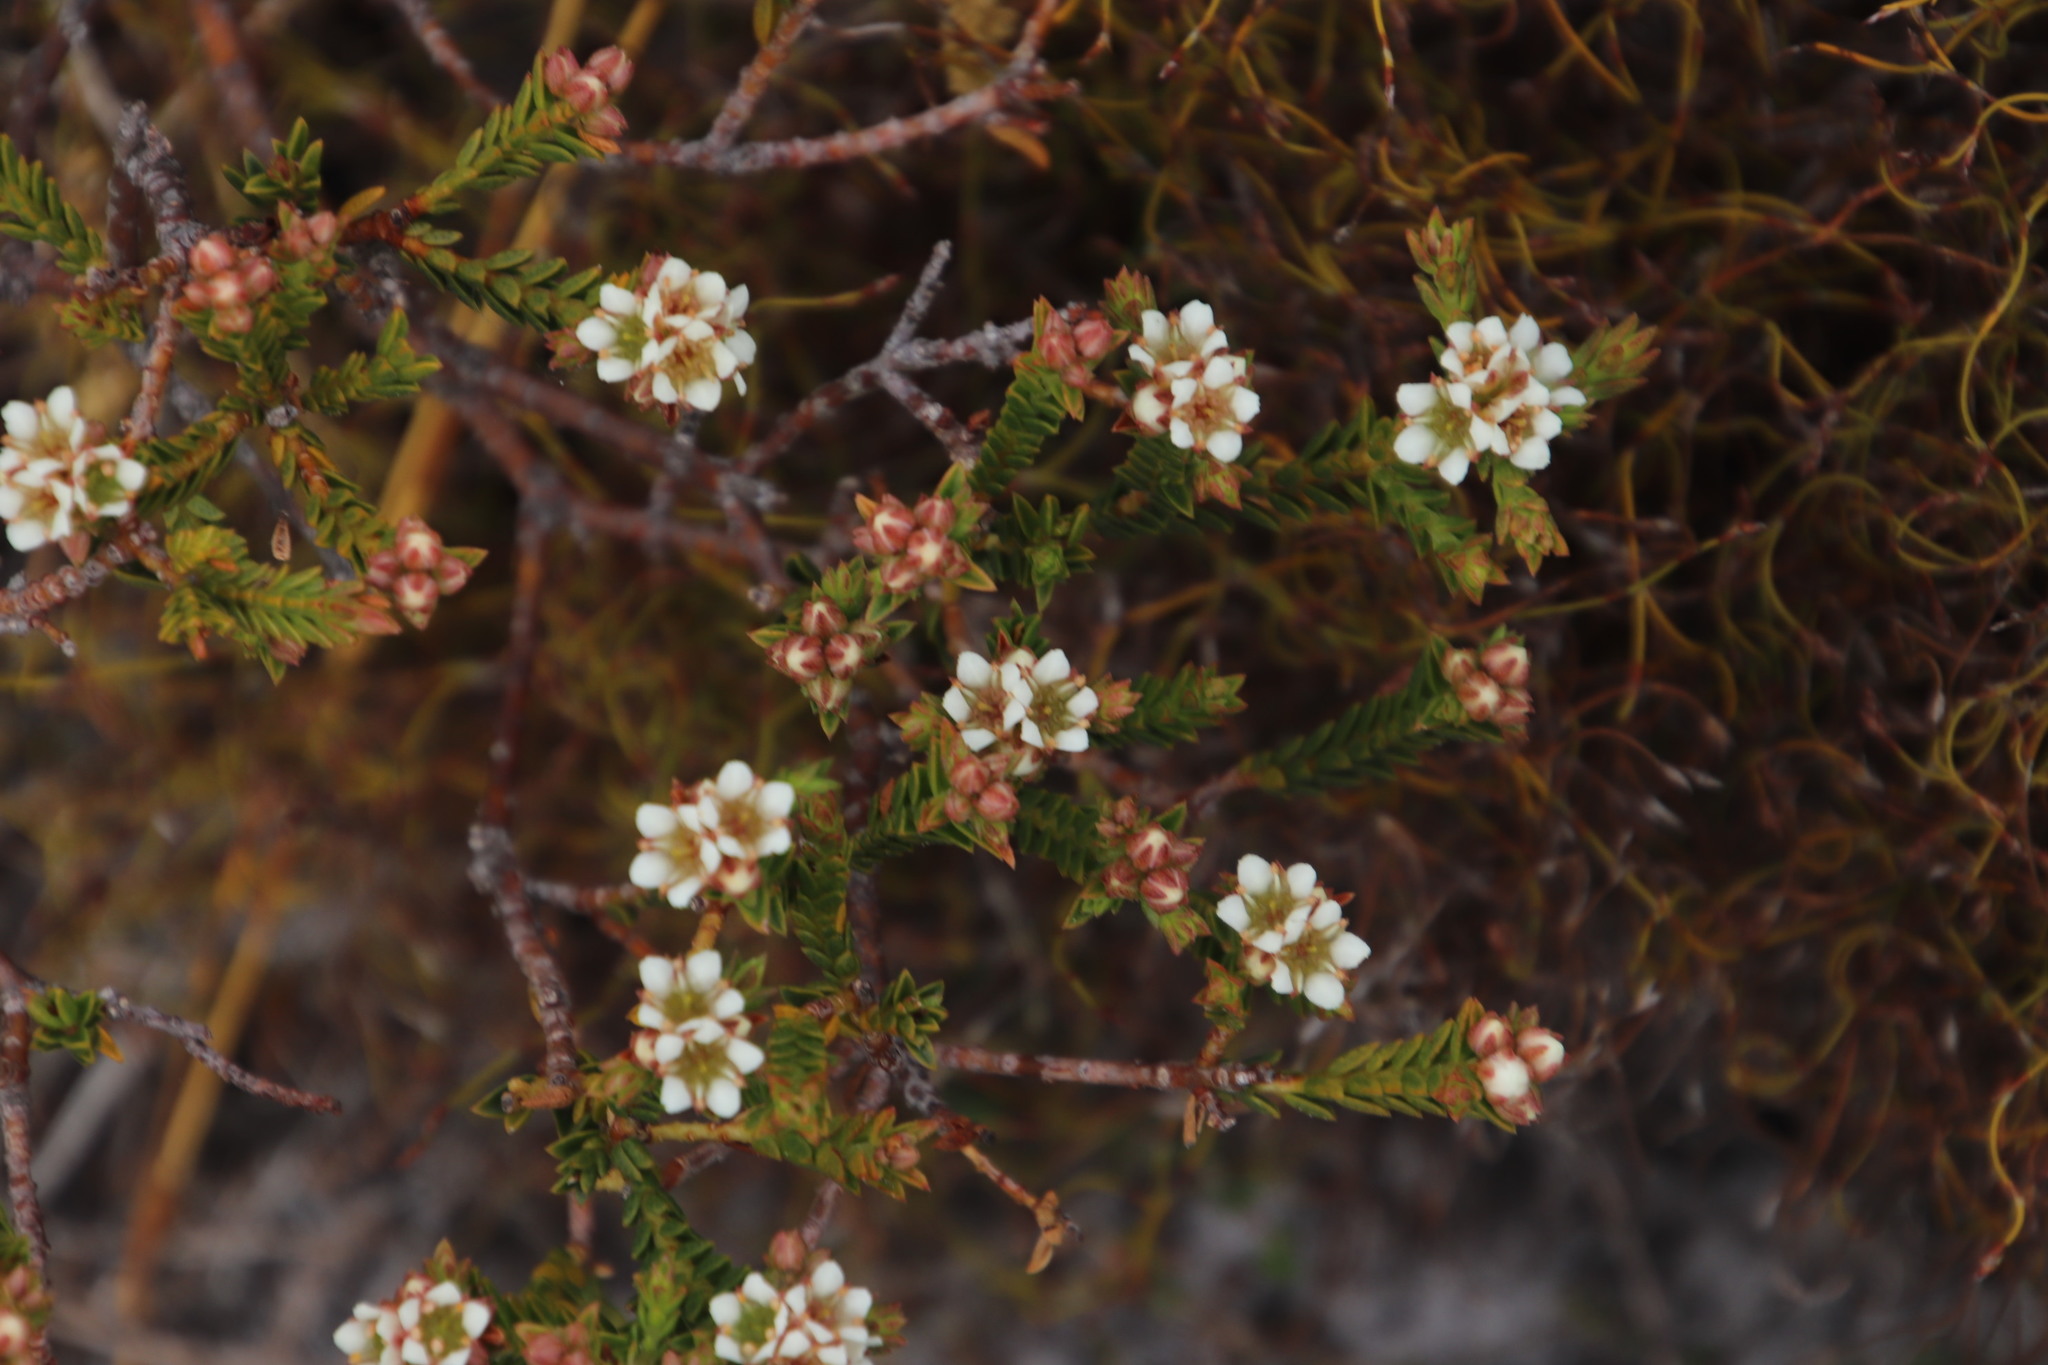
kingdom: Plantae
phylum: Tracheophyta
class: Magnoliopsida
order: Sapindales
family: Rutaceae
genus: Diosma
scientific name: Diosma oppositifolia
